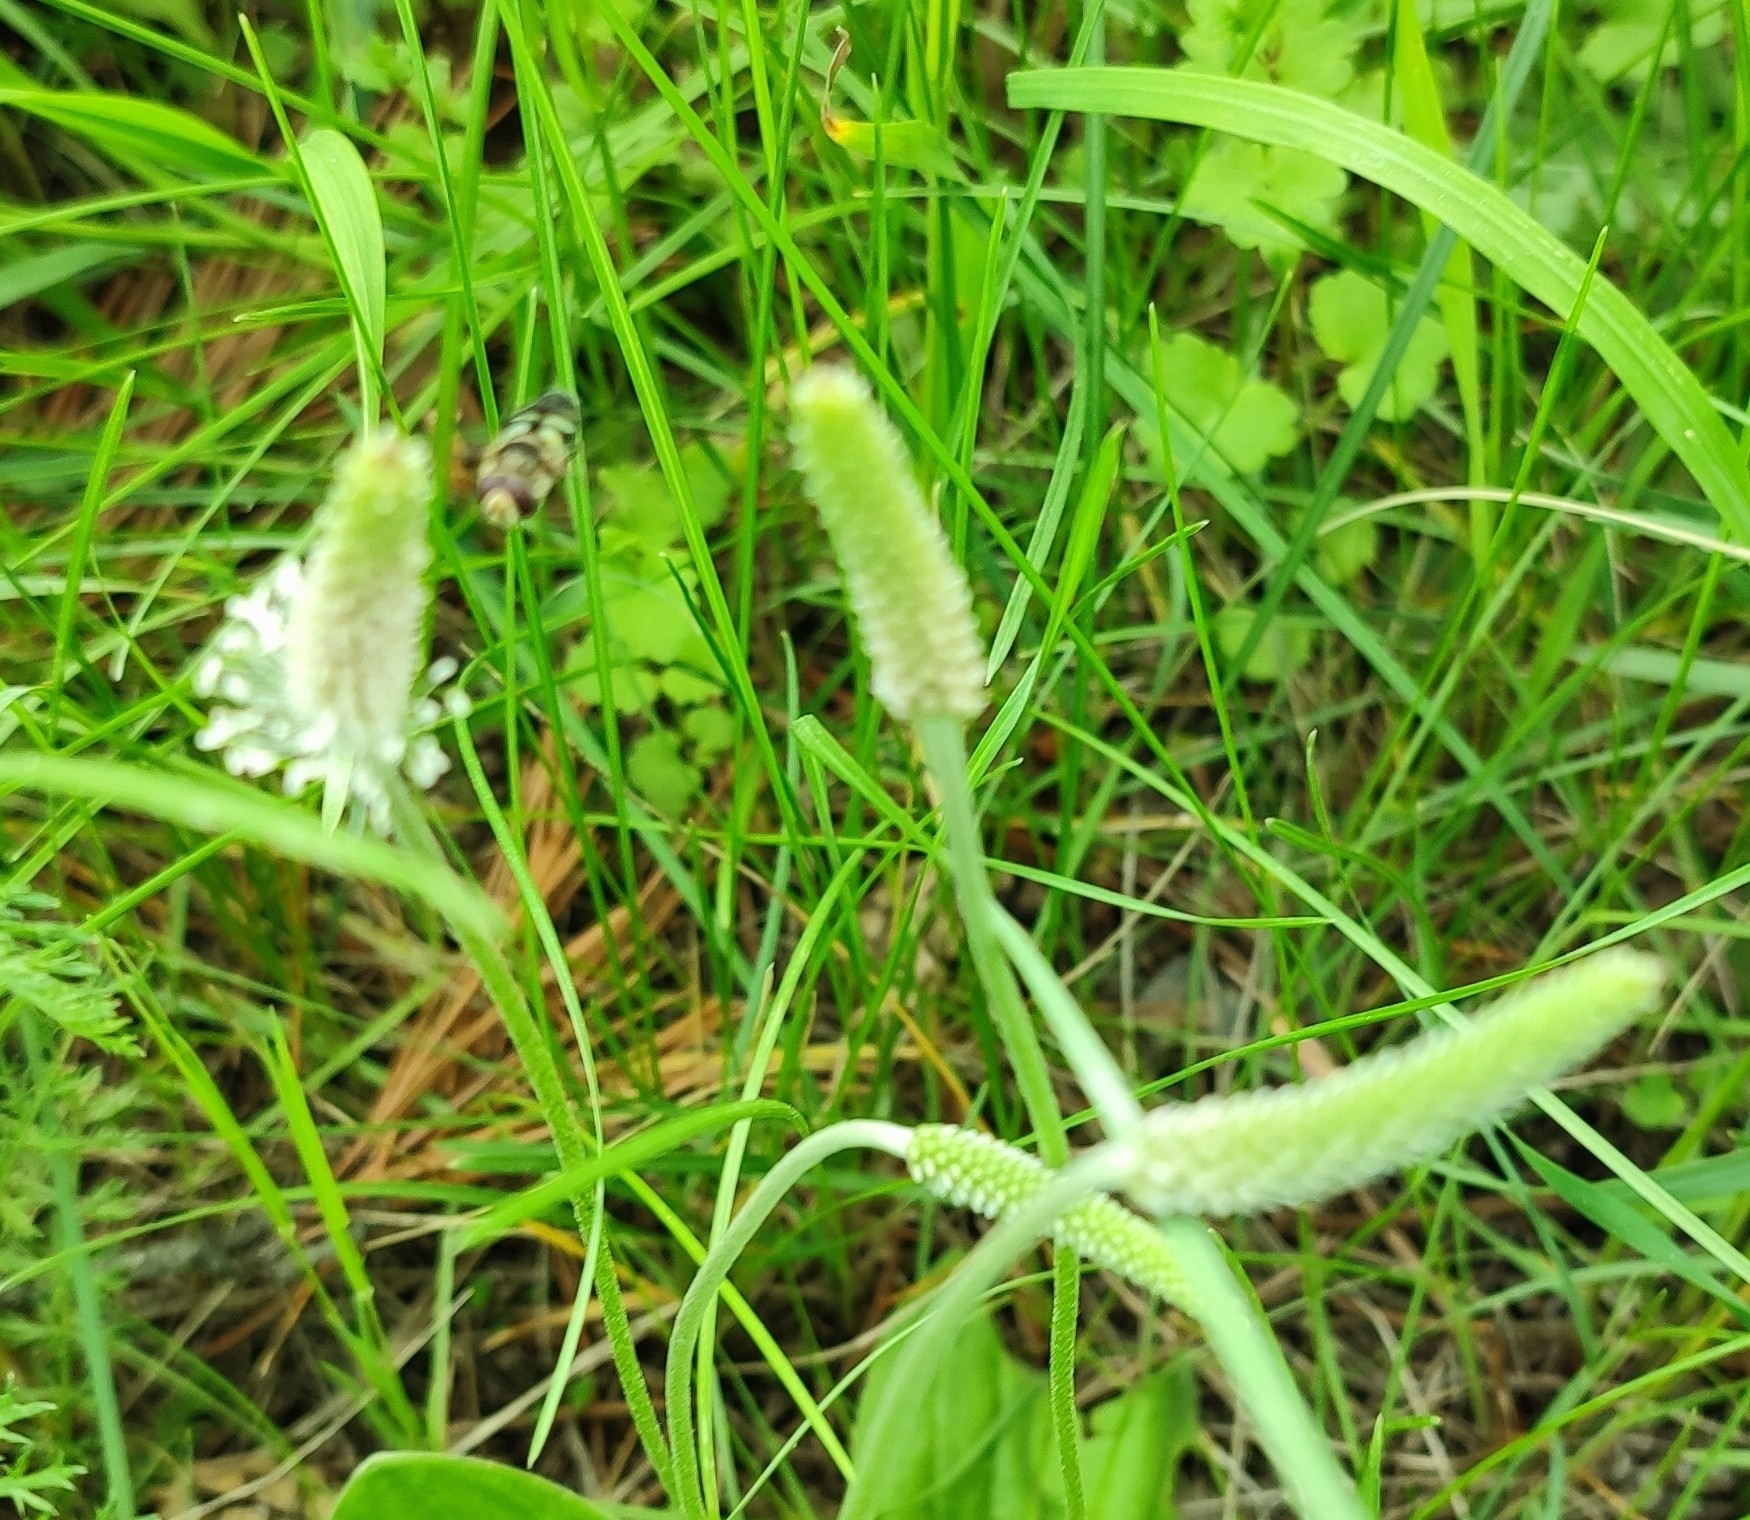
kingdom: Plantae
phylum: Tracheophyta
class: Magnoliopsida
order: Lamiales
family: Plantaginaceae
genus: Plantago
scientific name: Plantago media
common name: Hoary plantain
